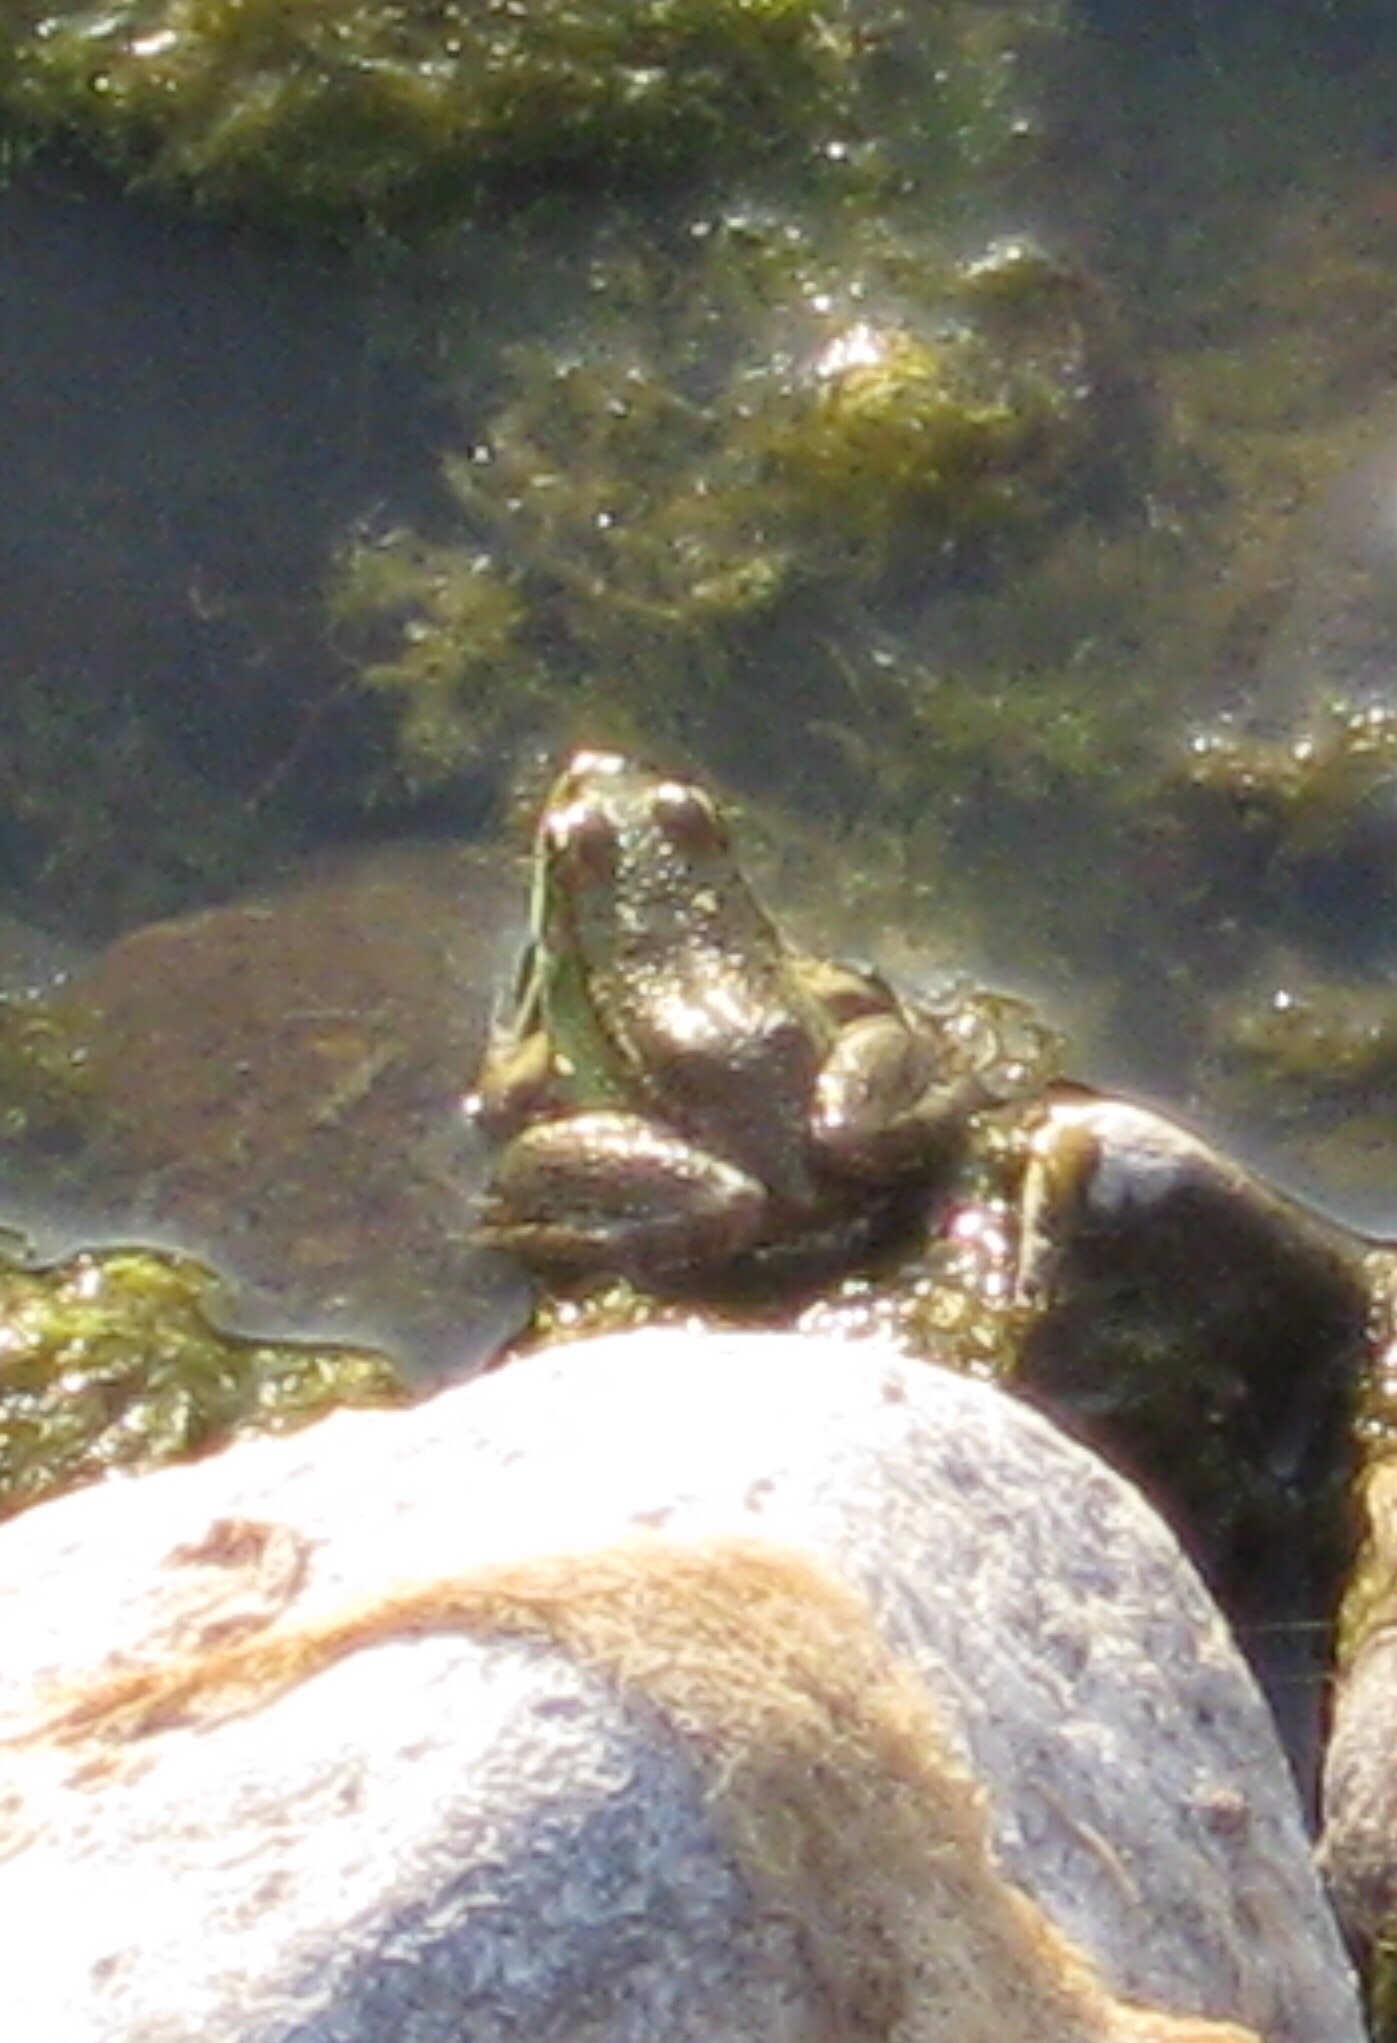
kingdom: Animalia
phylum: Chordata
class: Amphibia
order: Anura
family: Ranidae
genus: Pelophylax
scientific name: Pelophylax ridibundus
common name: Marsh frog
